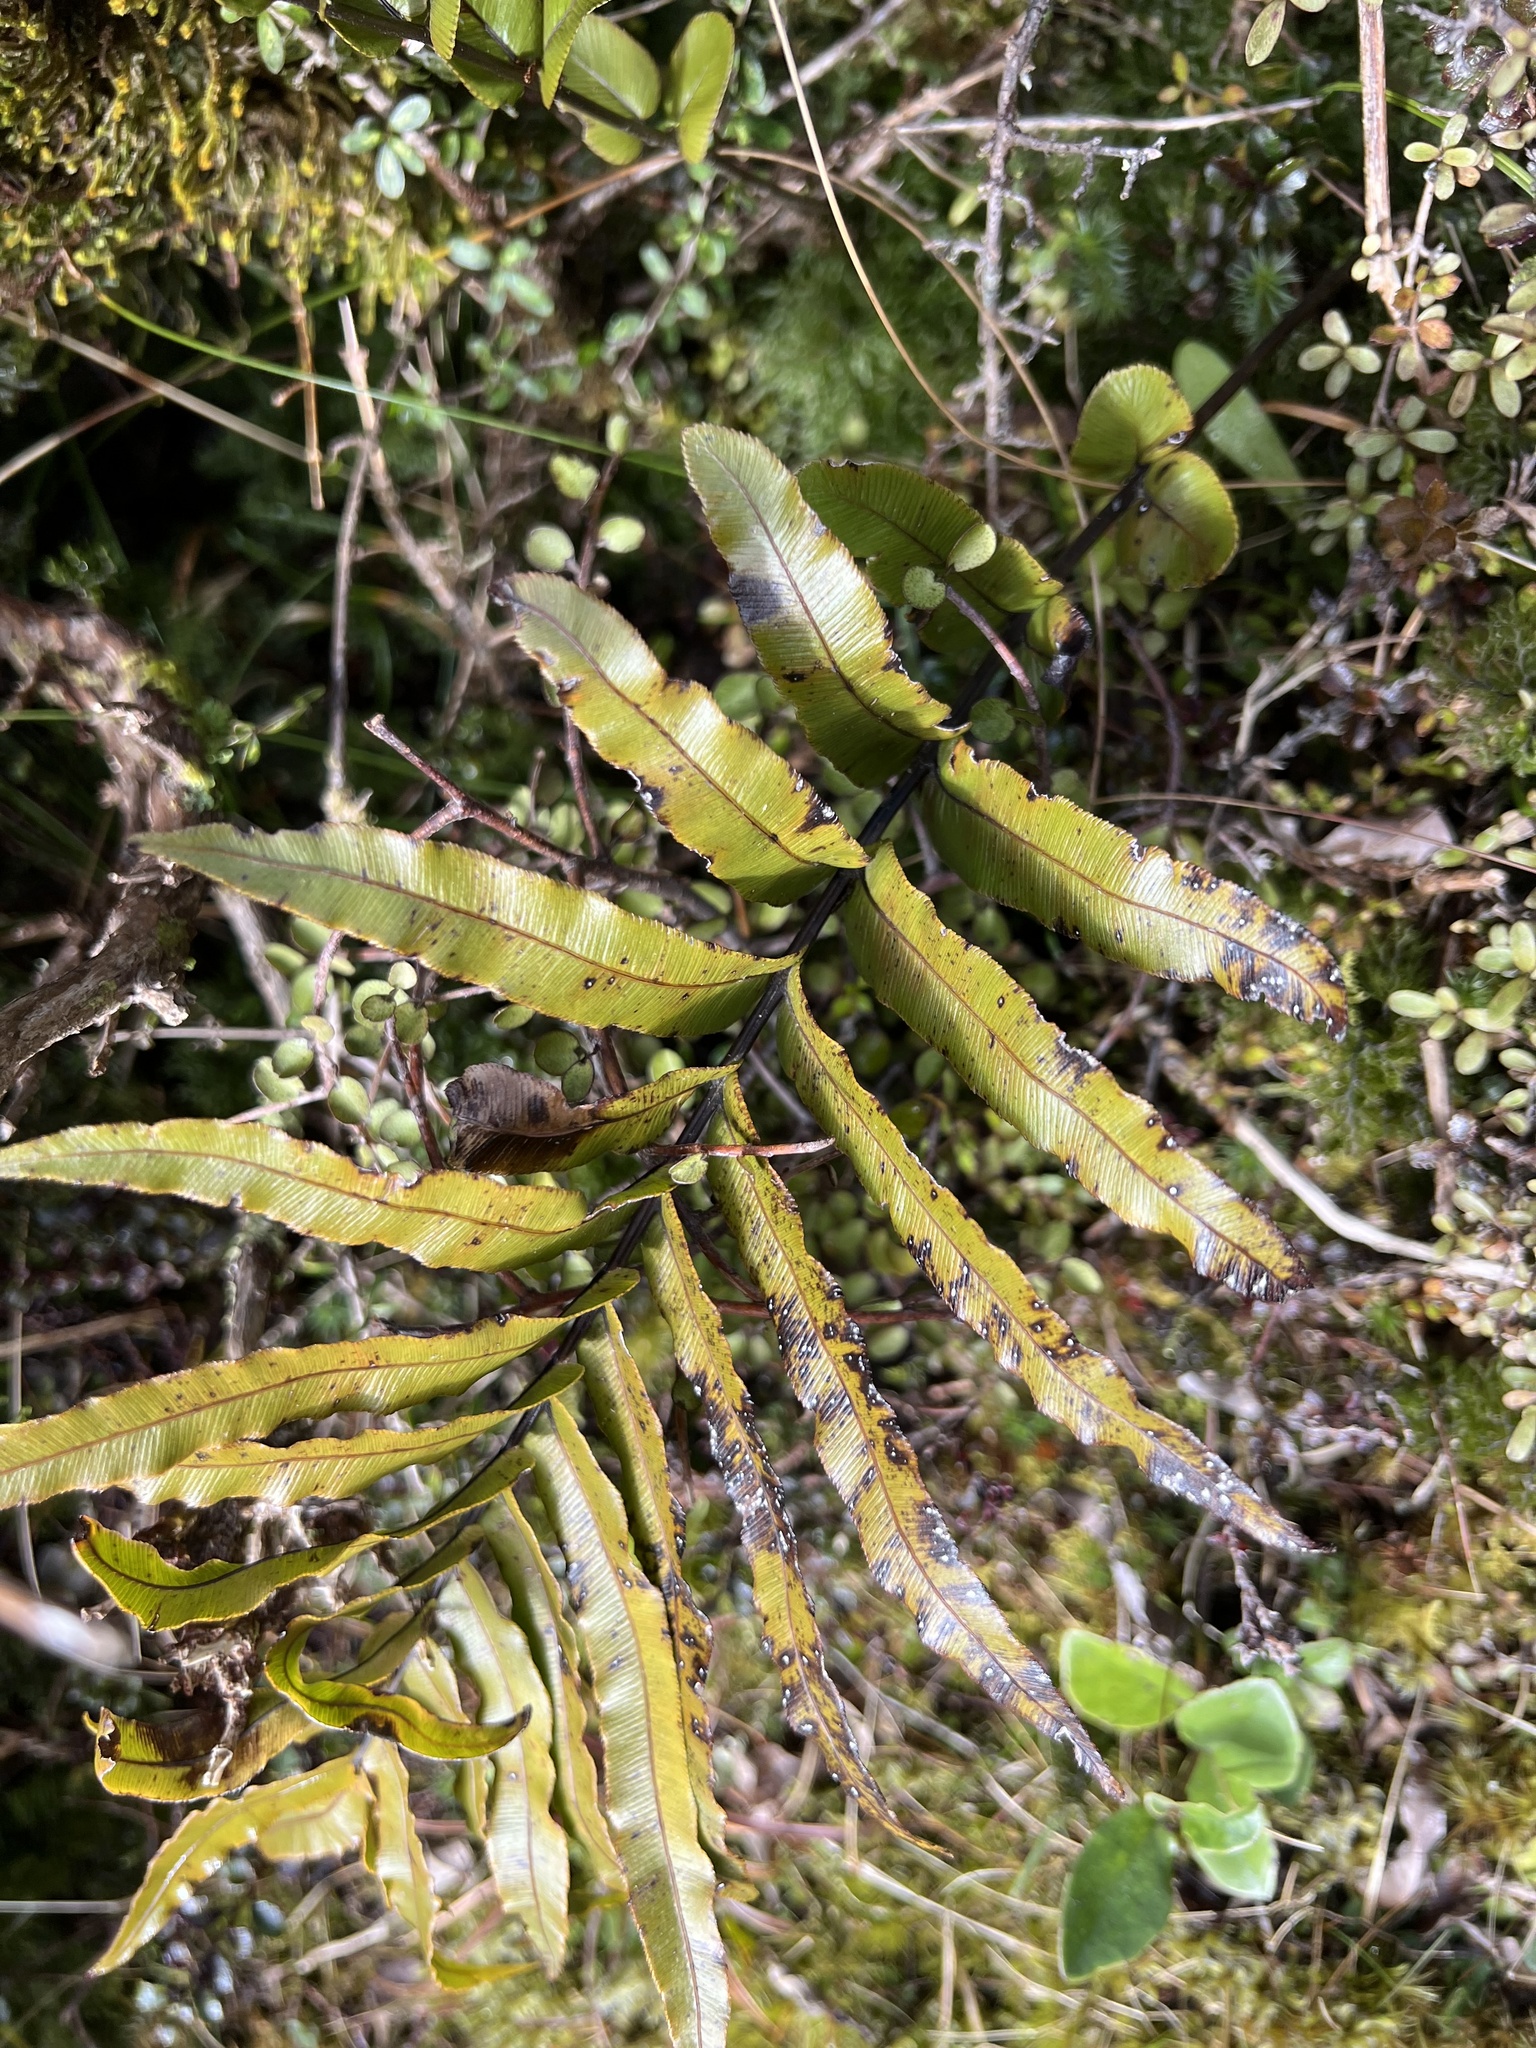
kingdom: Plantae
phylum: Tracheophyta
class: Polypodiopsida
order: Polypodiales
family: Blechnaceae
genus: Parablechnum
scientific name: Parablechnum montanum
